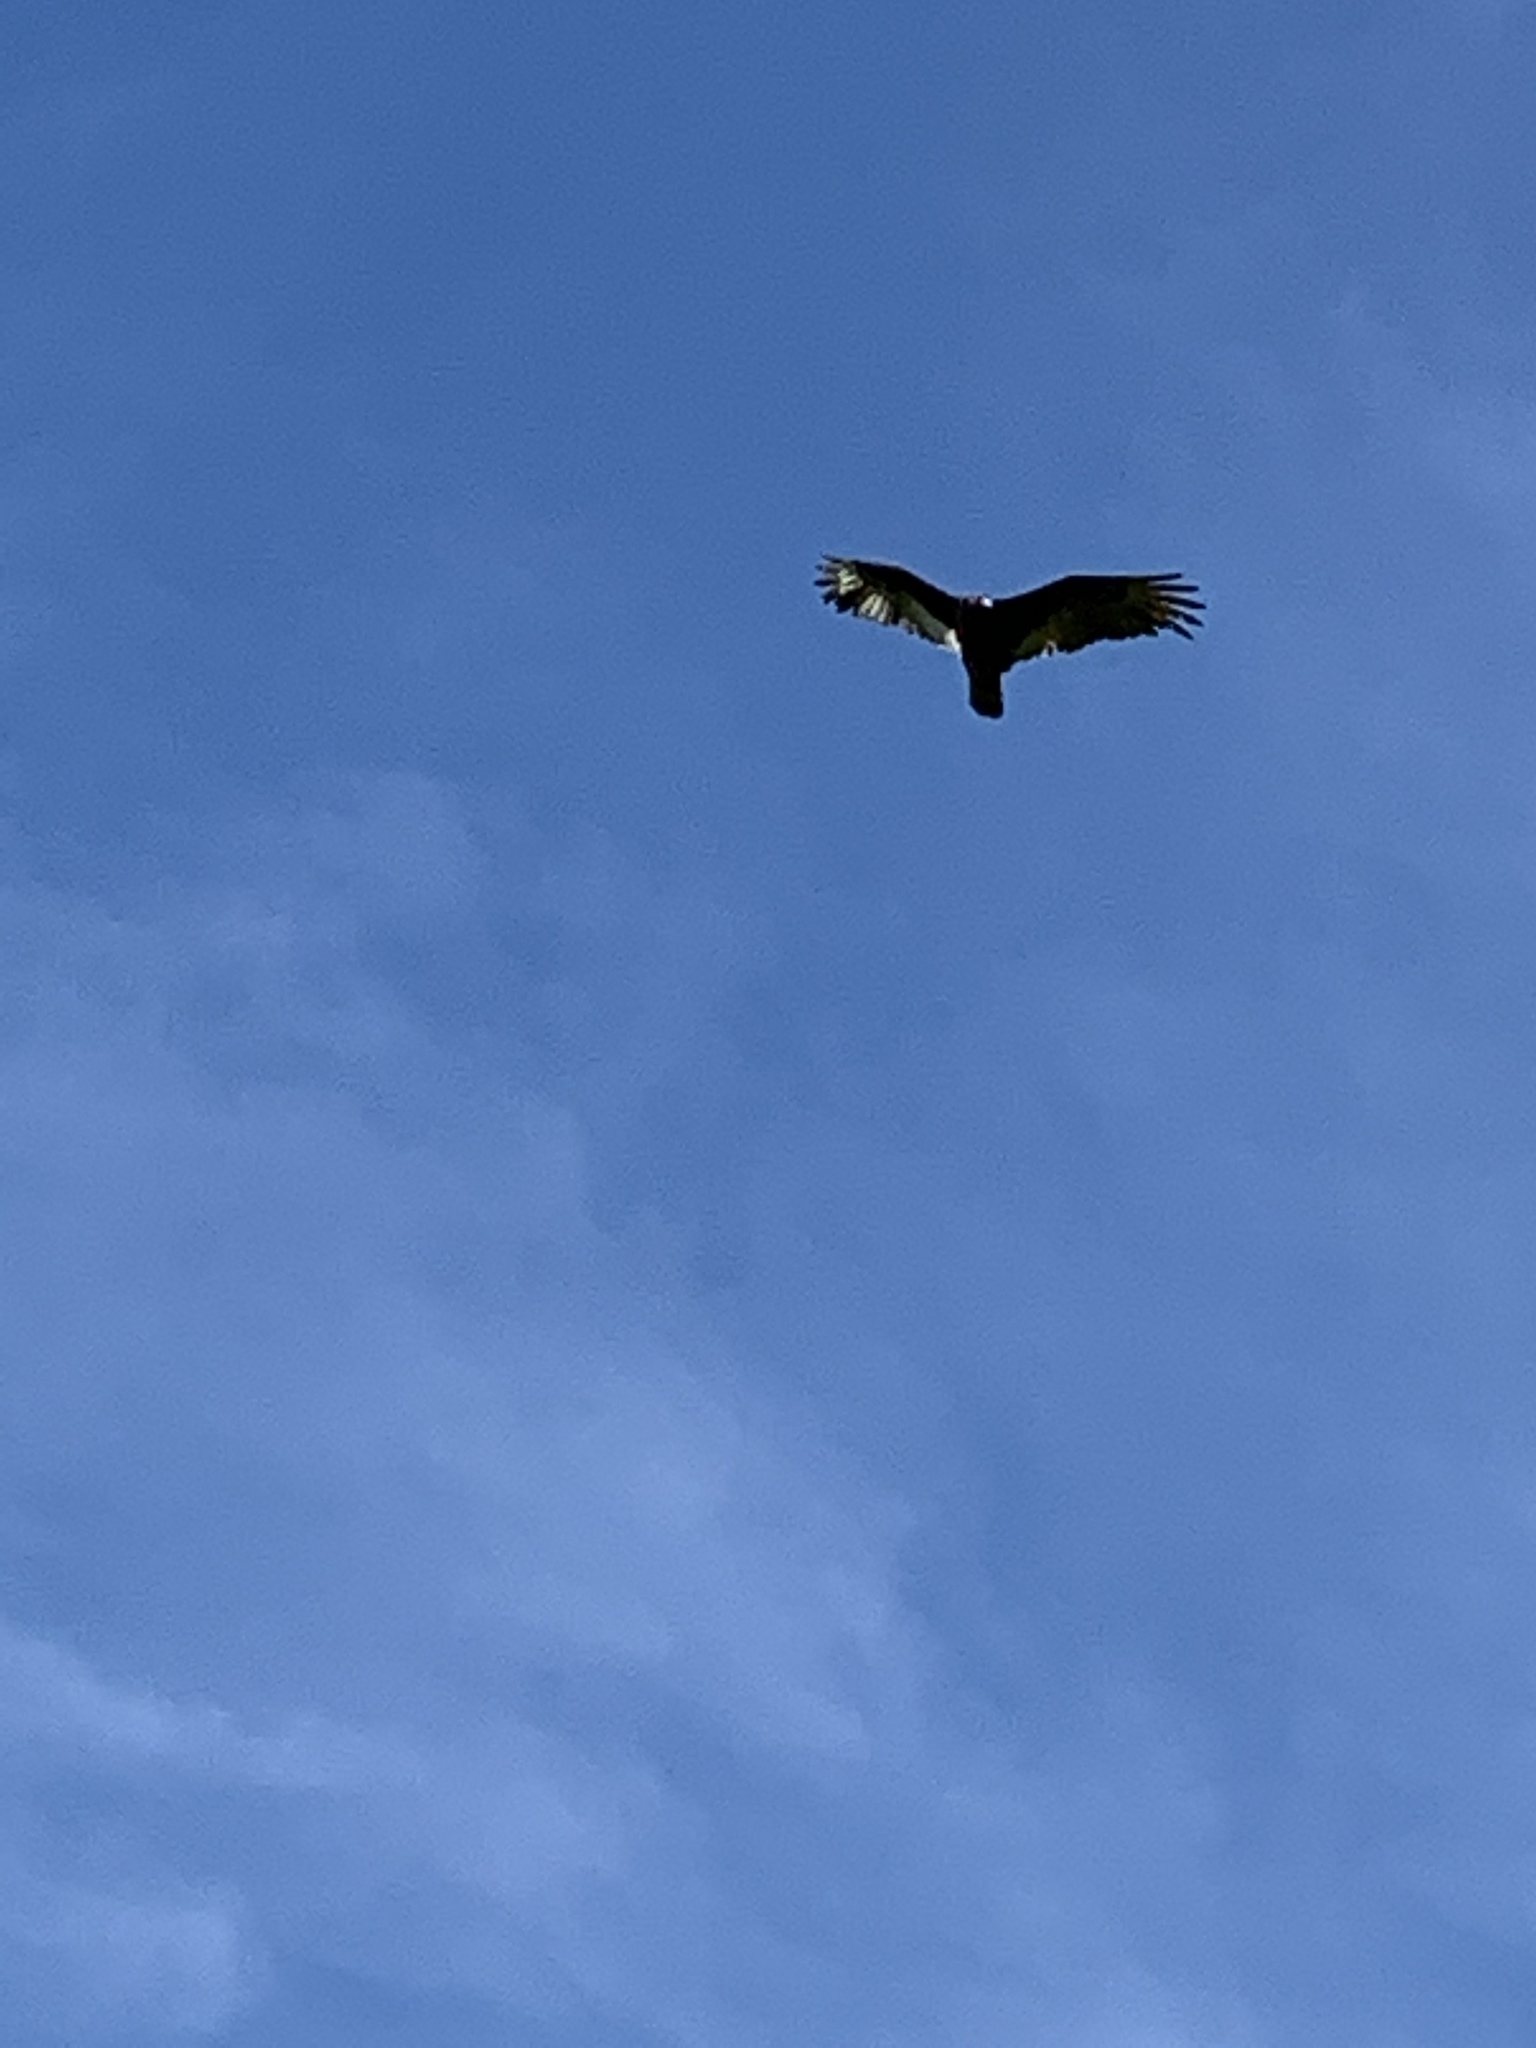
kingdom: Animalia
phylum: Chordata
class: Aves
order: Accipitriformes
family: Cathartidae
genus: Cathartes
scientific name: Cathartes aura
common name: Turkey vulture
